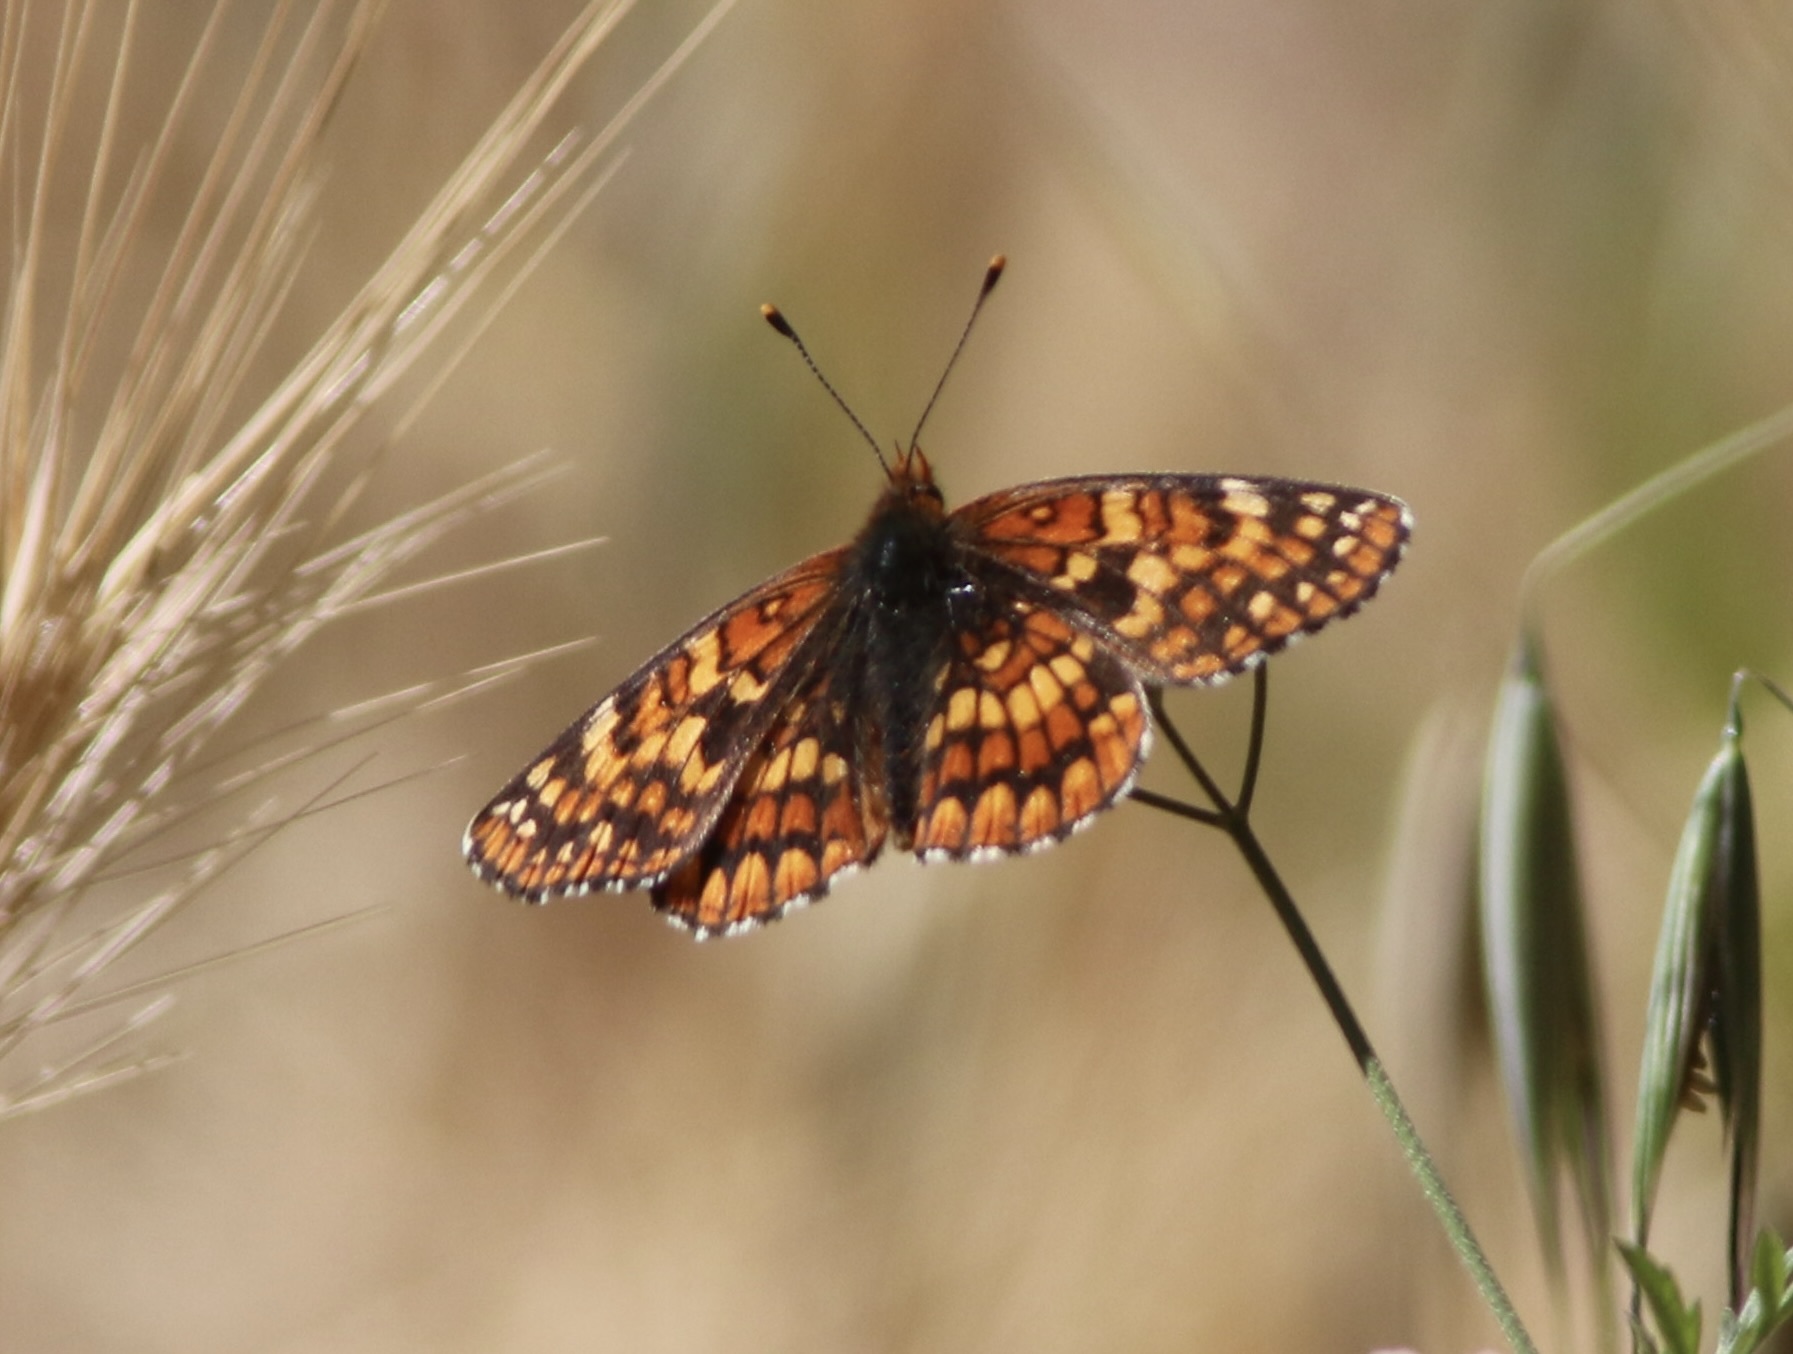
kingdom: Animalia
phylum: Arthropoda
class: Insecta
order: Lepidoptera
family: Nymphalidae
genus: Chlosyne
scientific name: Chlosyne palla
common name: Northern checkerspot
